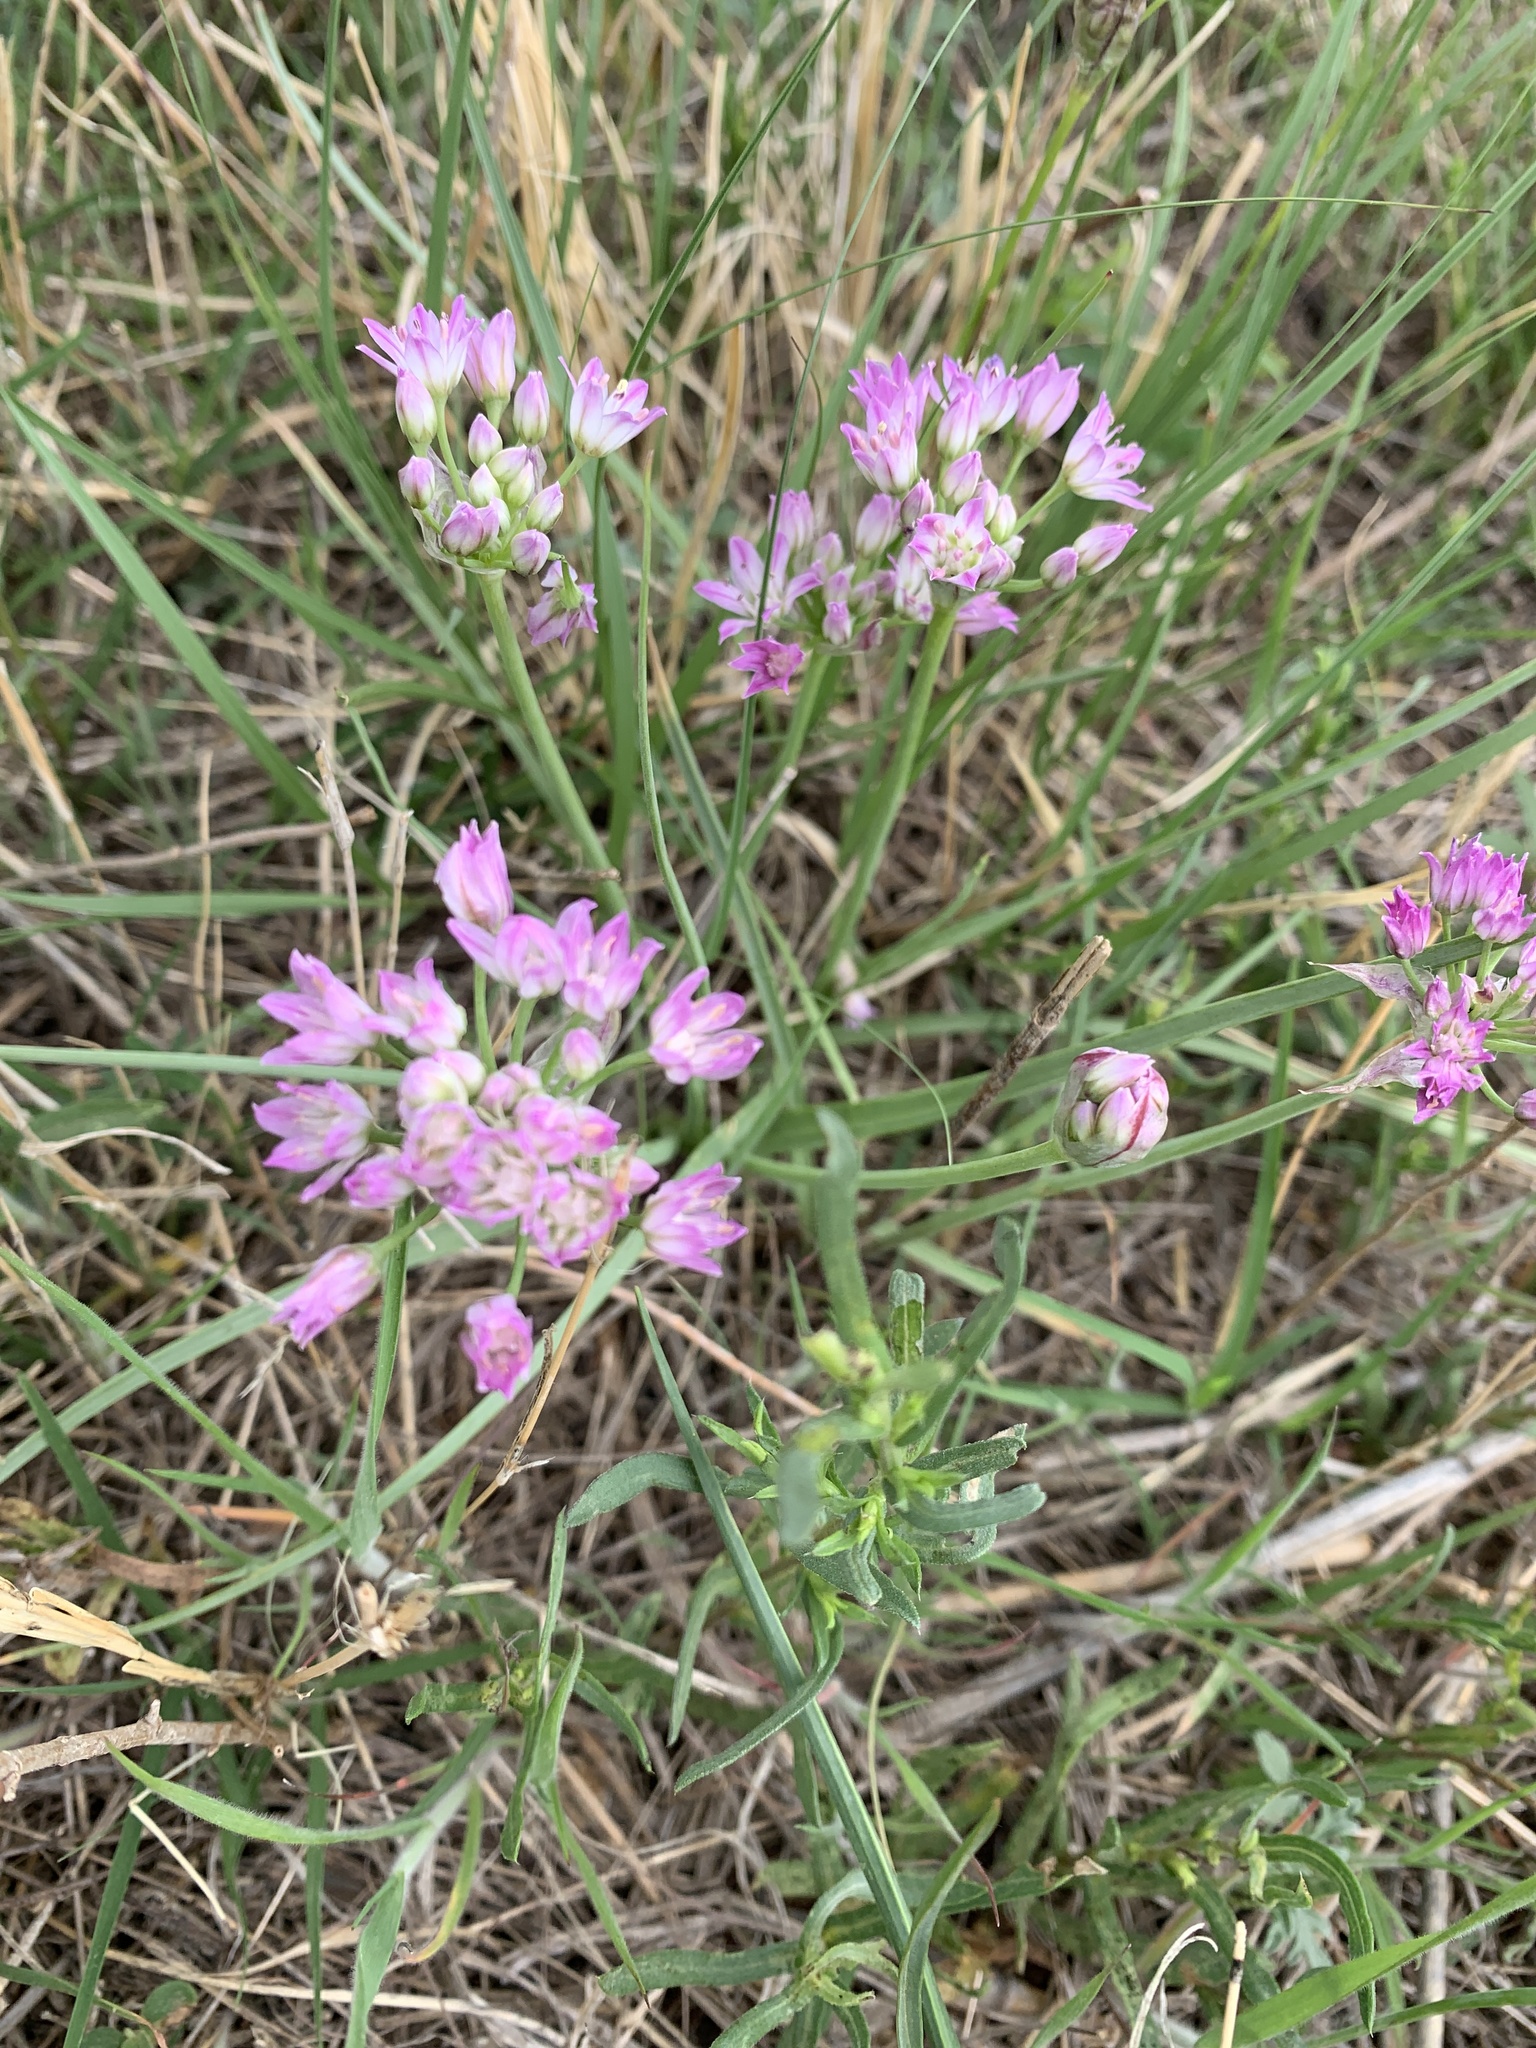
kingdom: Plantae
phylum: Tracheophyta
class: Liliopsida
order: Asparagales
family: Amaryllidaceae
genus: Allium
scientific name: Allium drummondii
